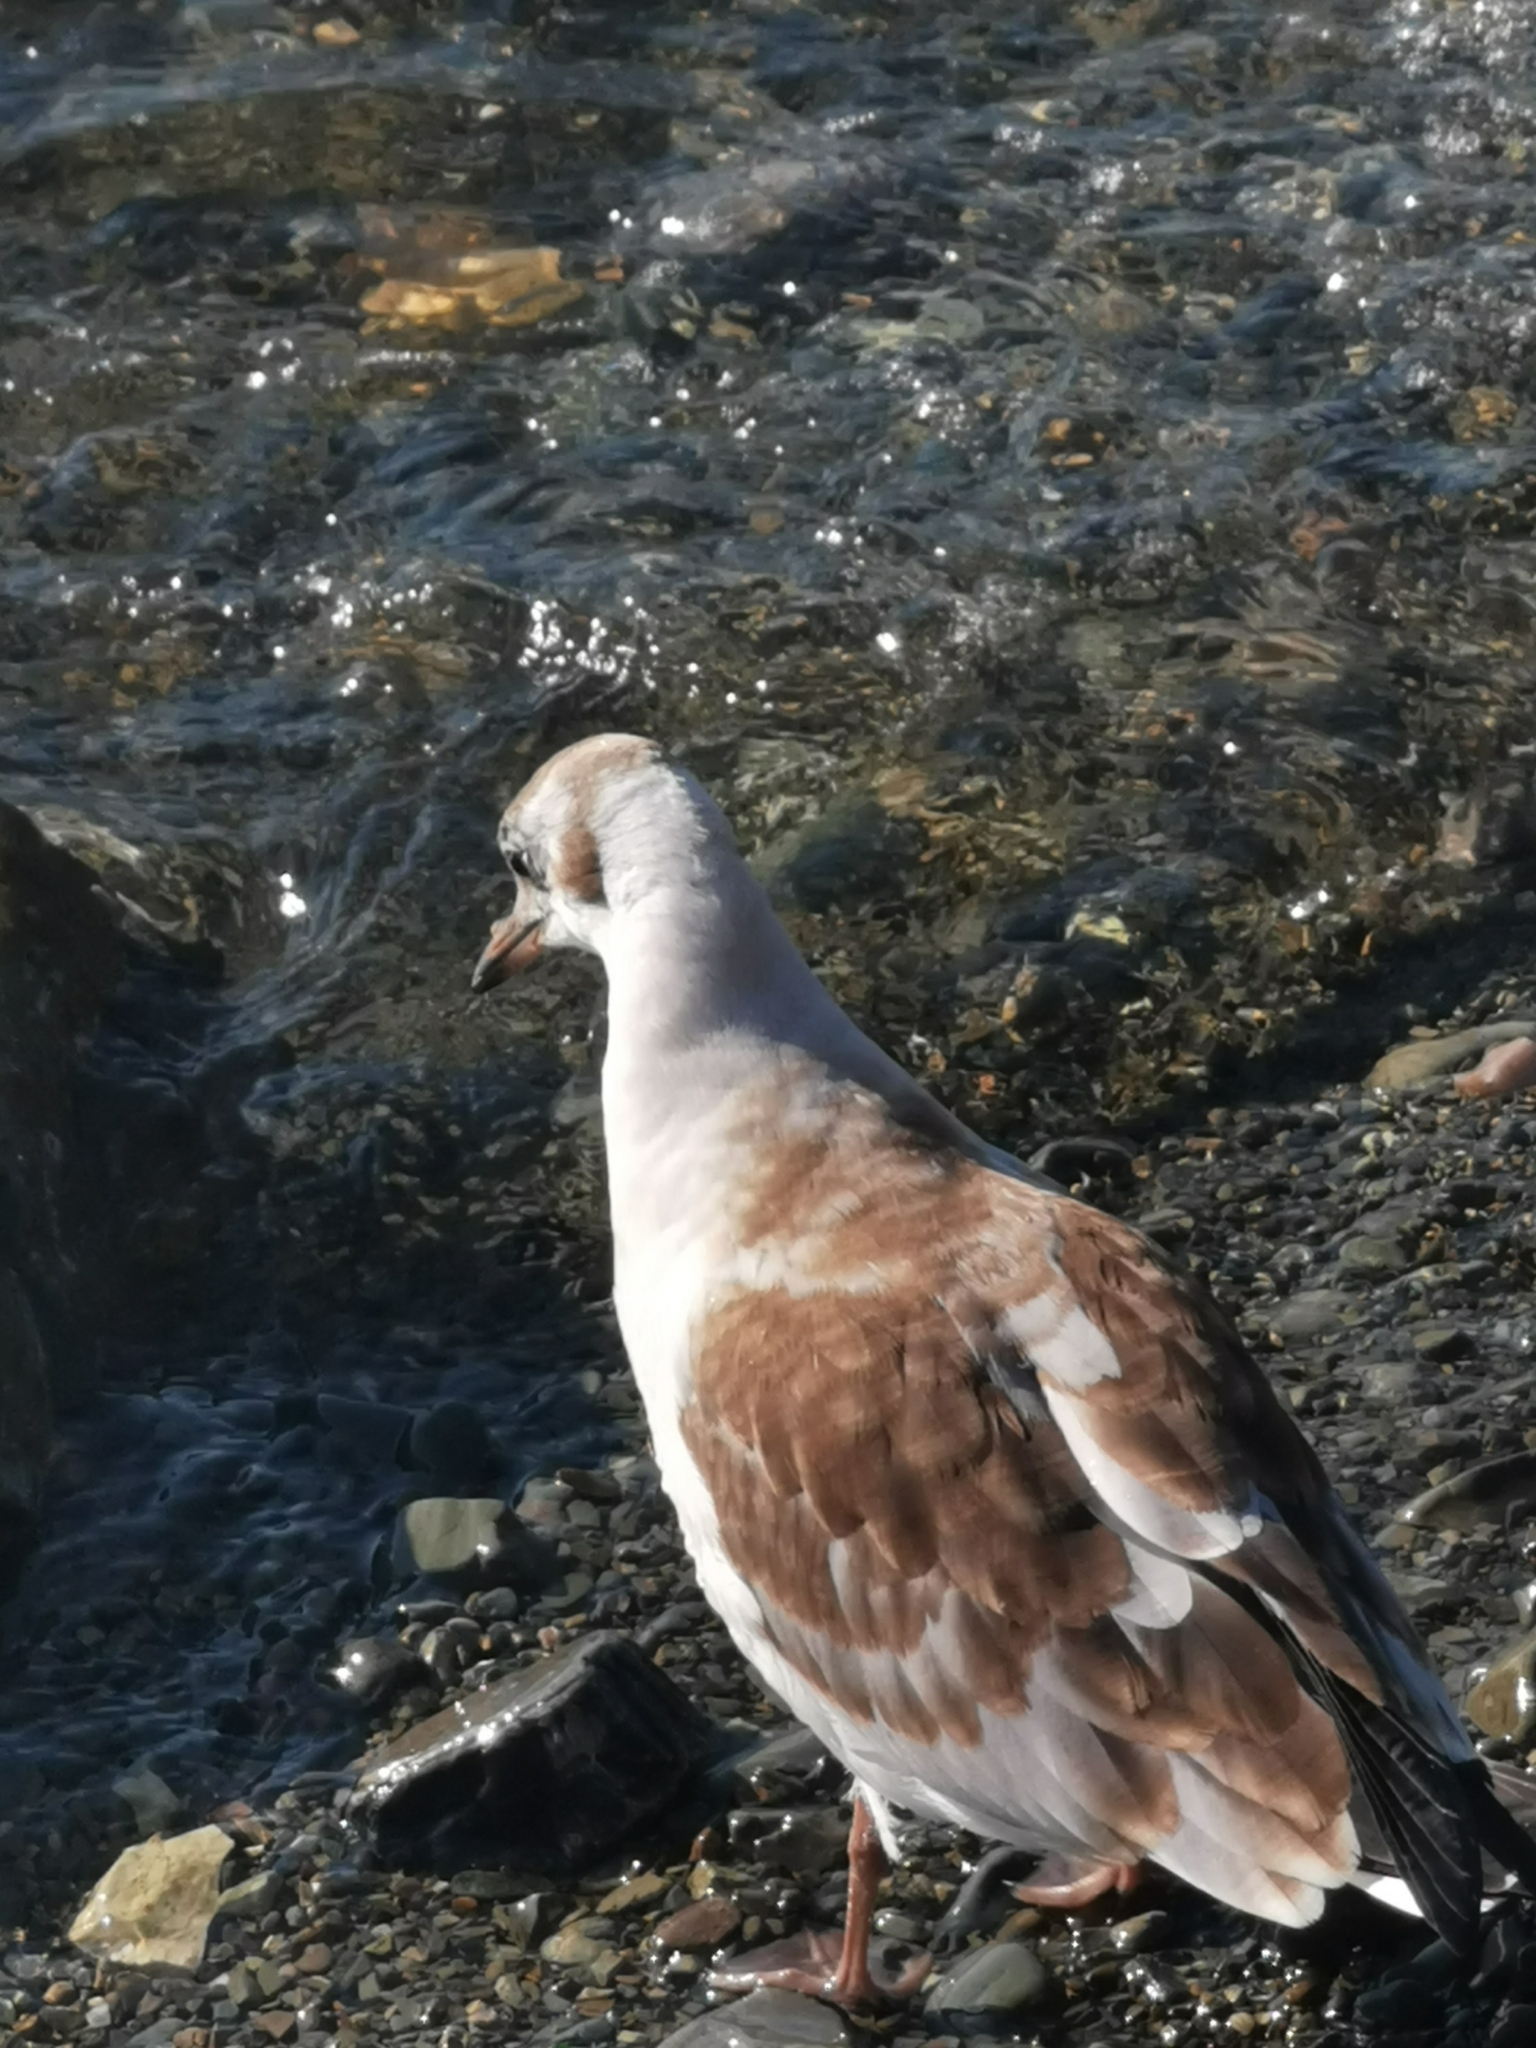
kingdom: Animalia
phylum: Chordata
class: Aves
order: Charadriiformes
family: Laridae
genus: Chroicocephalus
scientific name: Chroicocephalus ridibundus
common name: Black-headed gull
